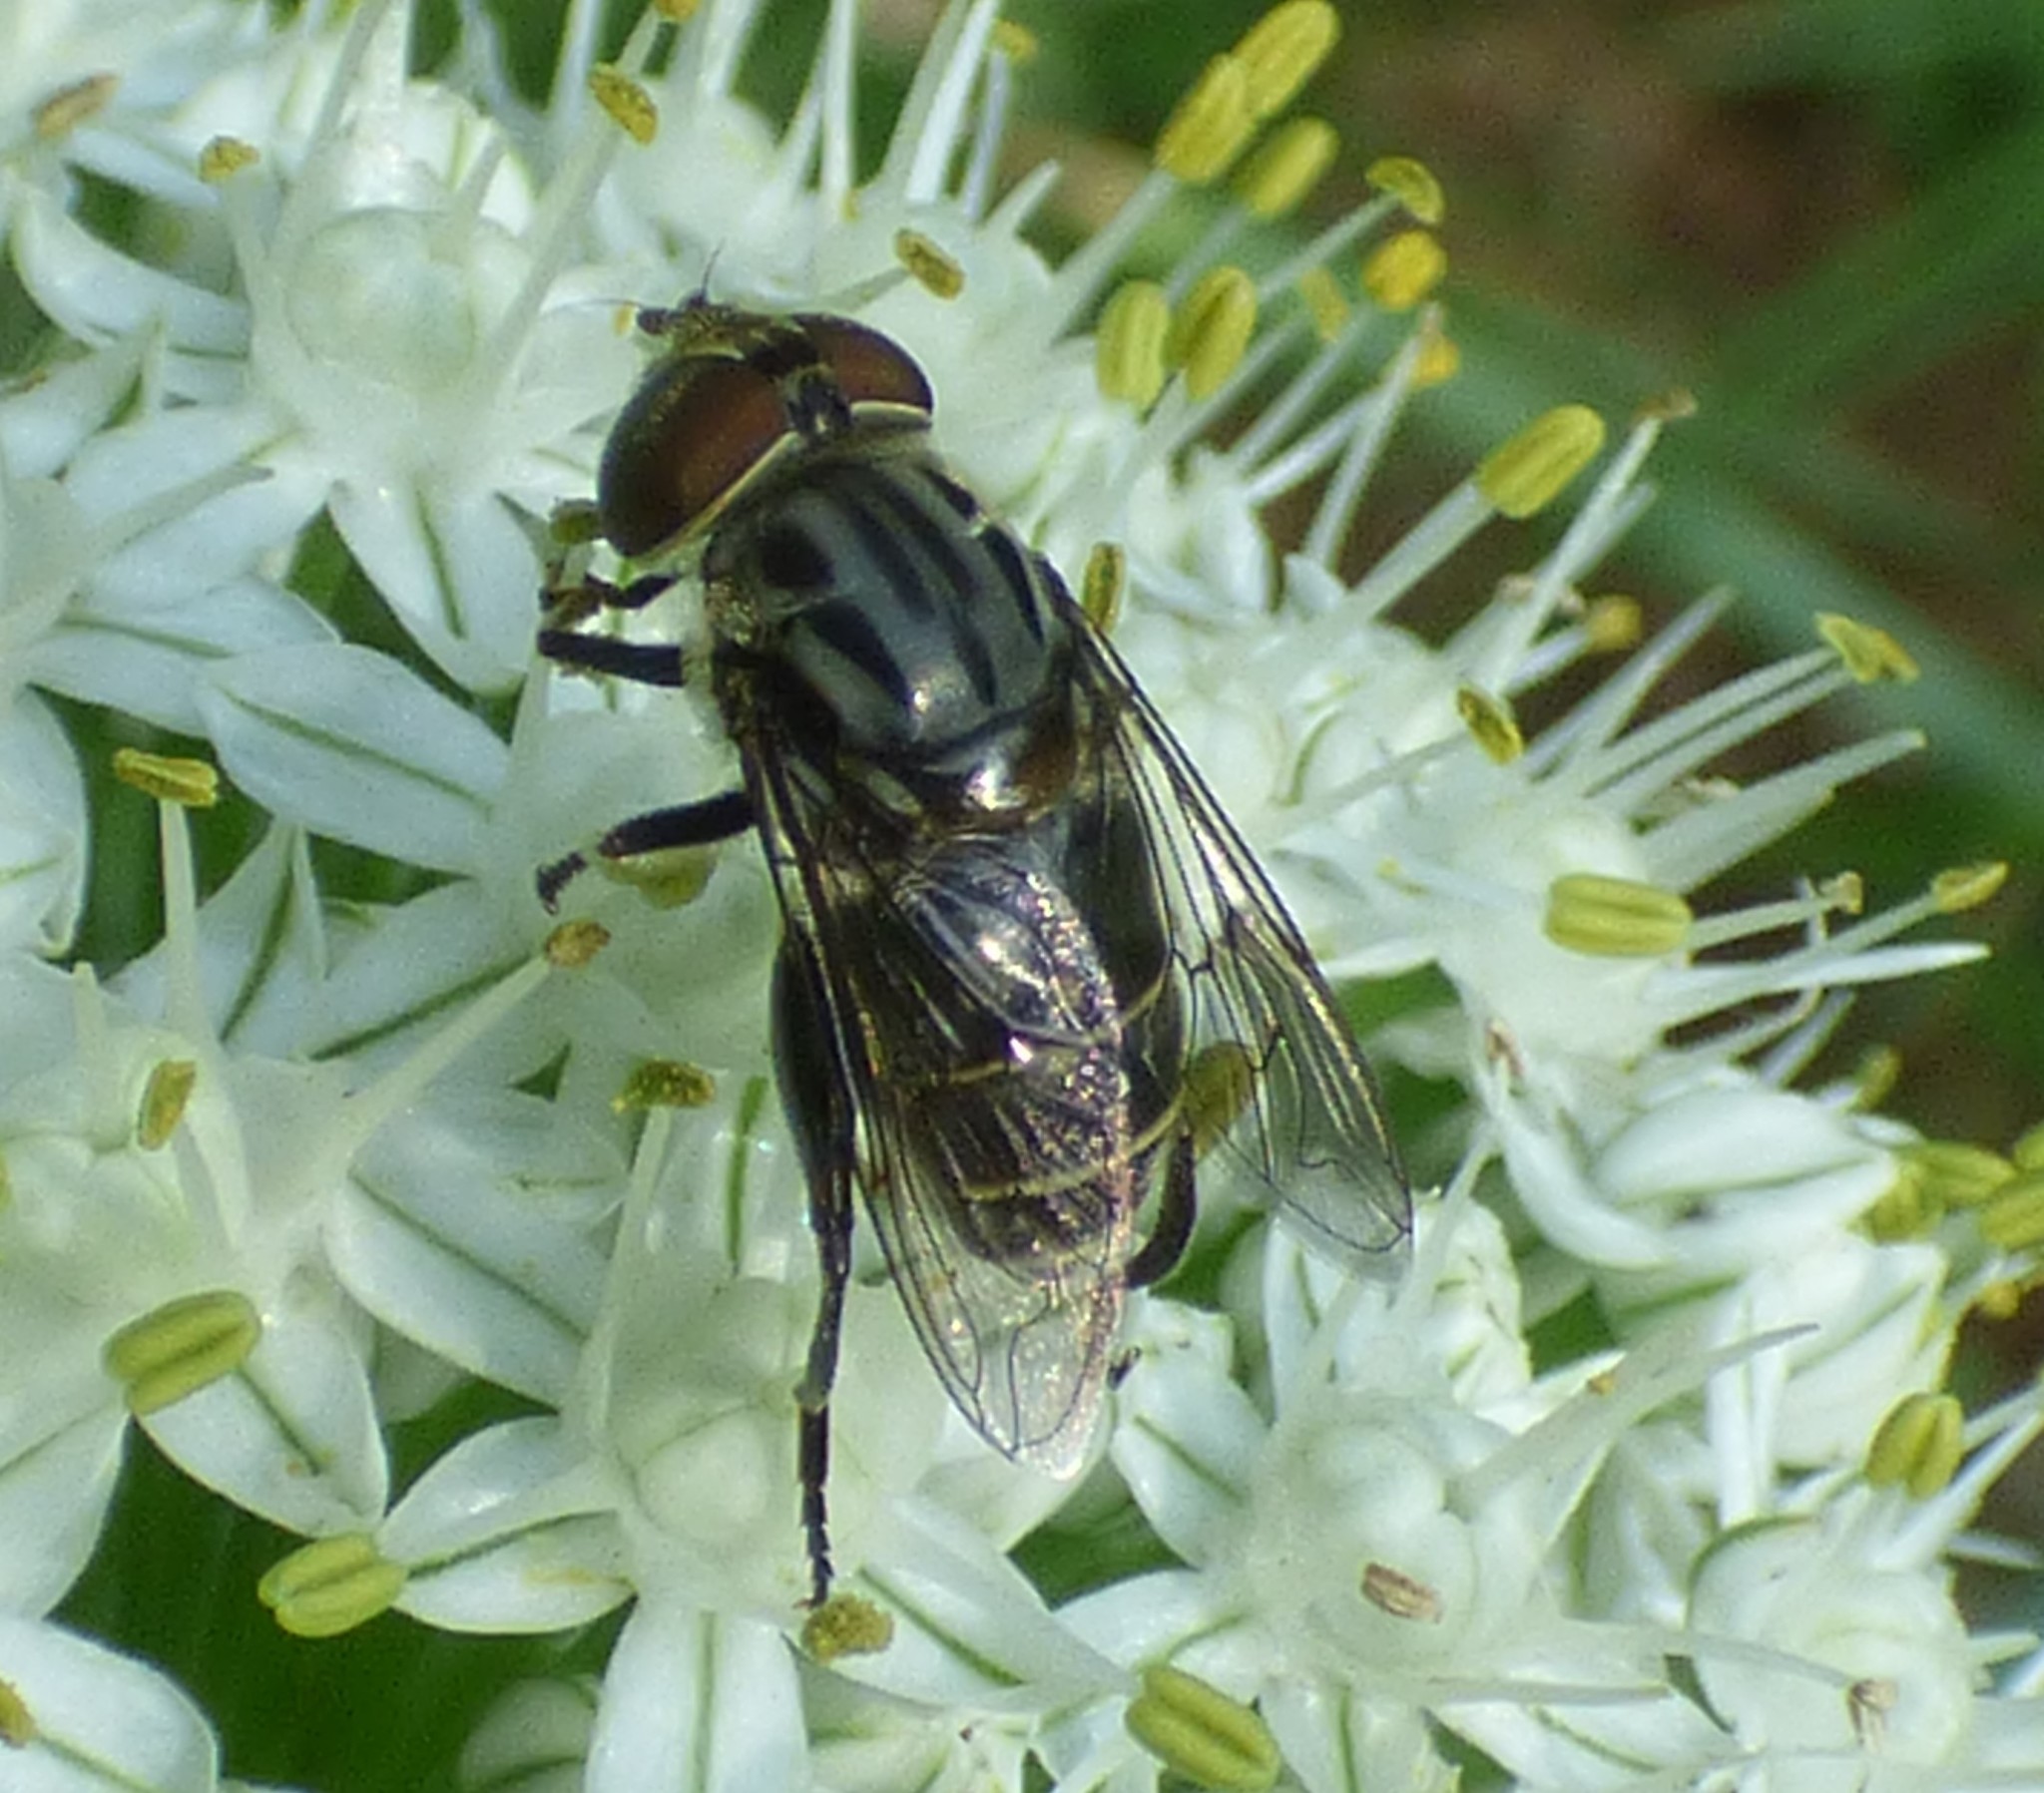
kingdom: Animalia
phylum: Arthropoda
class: Insecta
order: Diptera
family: Syrphidae
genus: Palpada
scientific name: Palpada furcata
